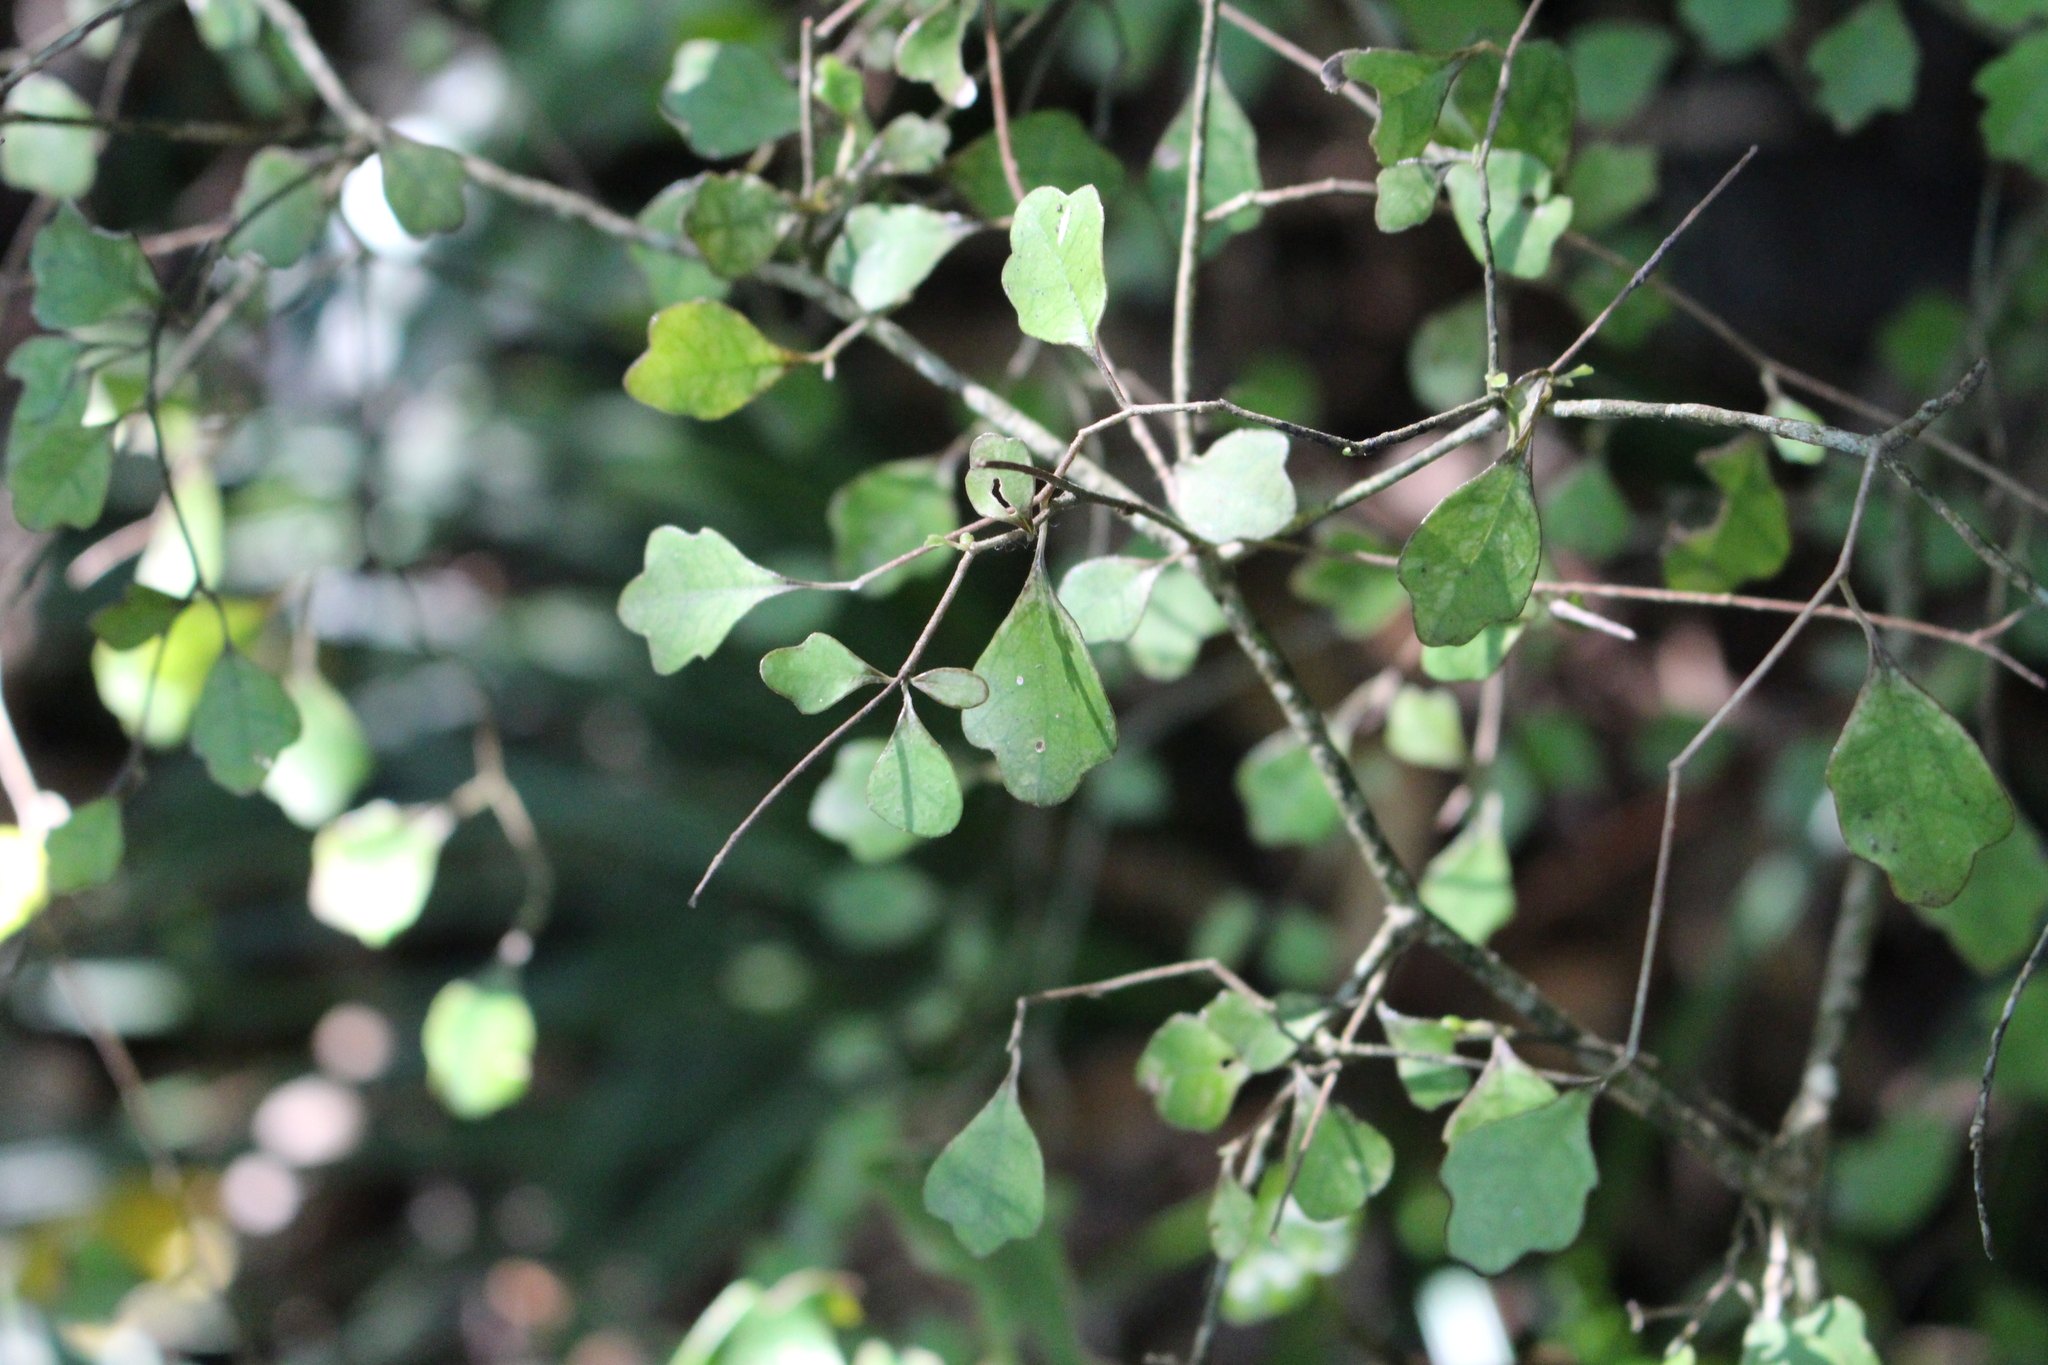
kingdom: Plantae
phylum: Tracheophyta
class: Magnoliopsida
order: Apiales
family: Pennantiaceae
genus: Pennantia
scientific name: Pennantia corymbosa
